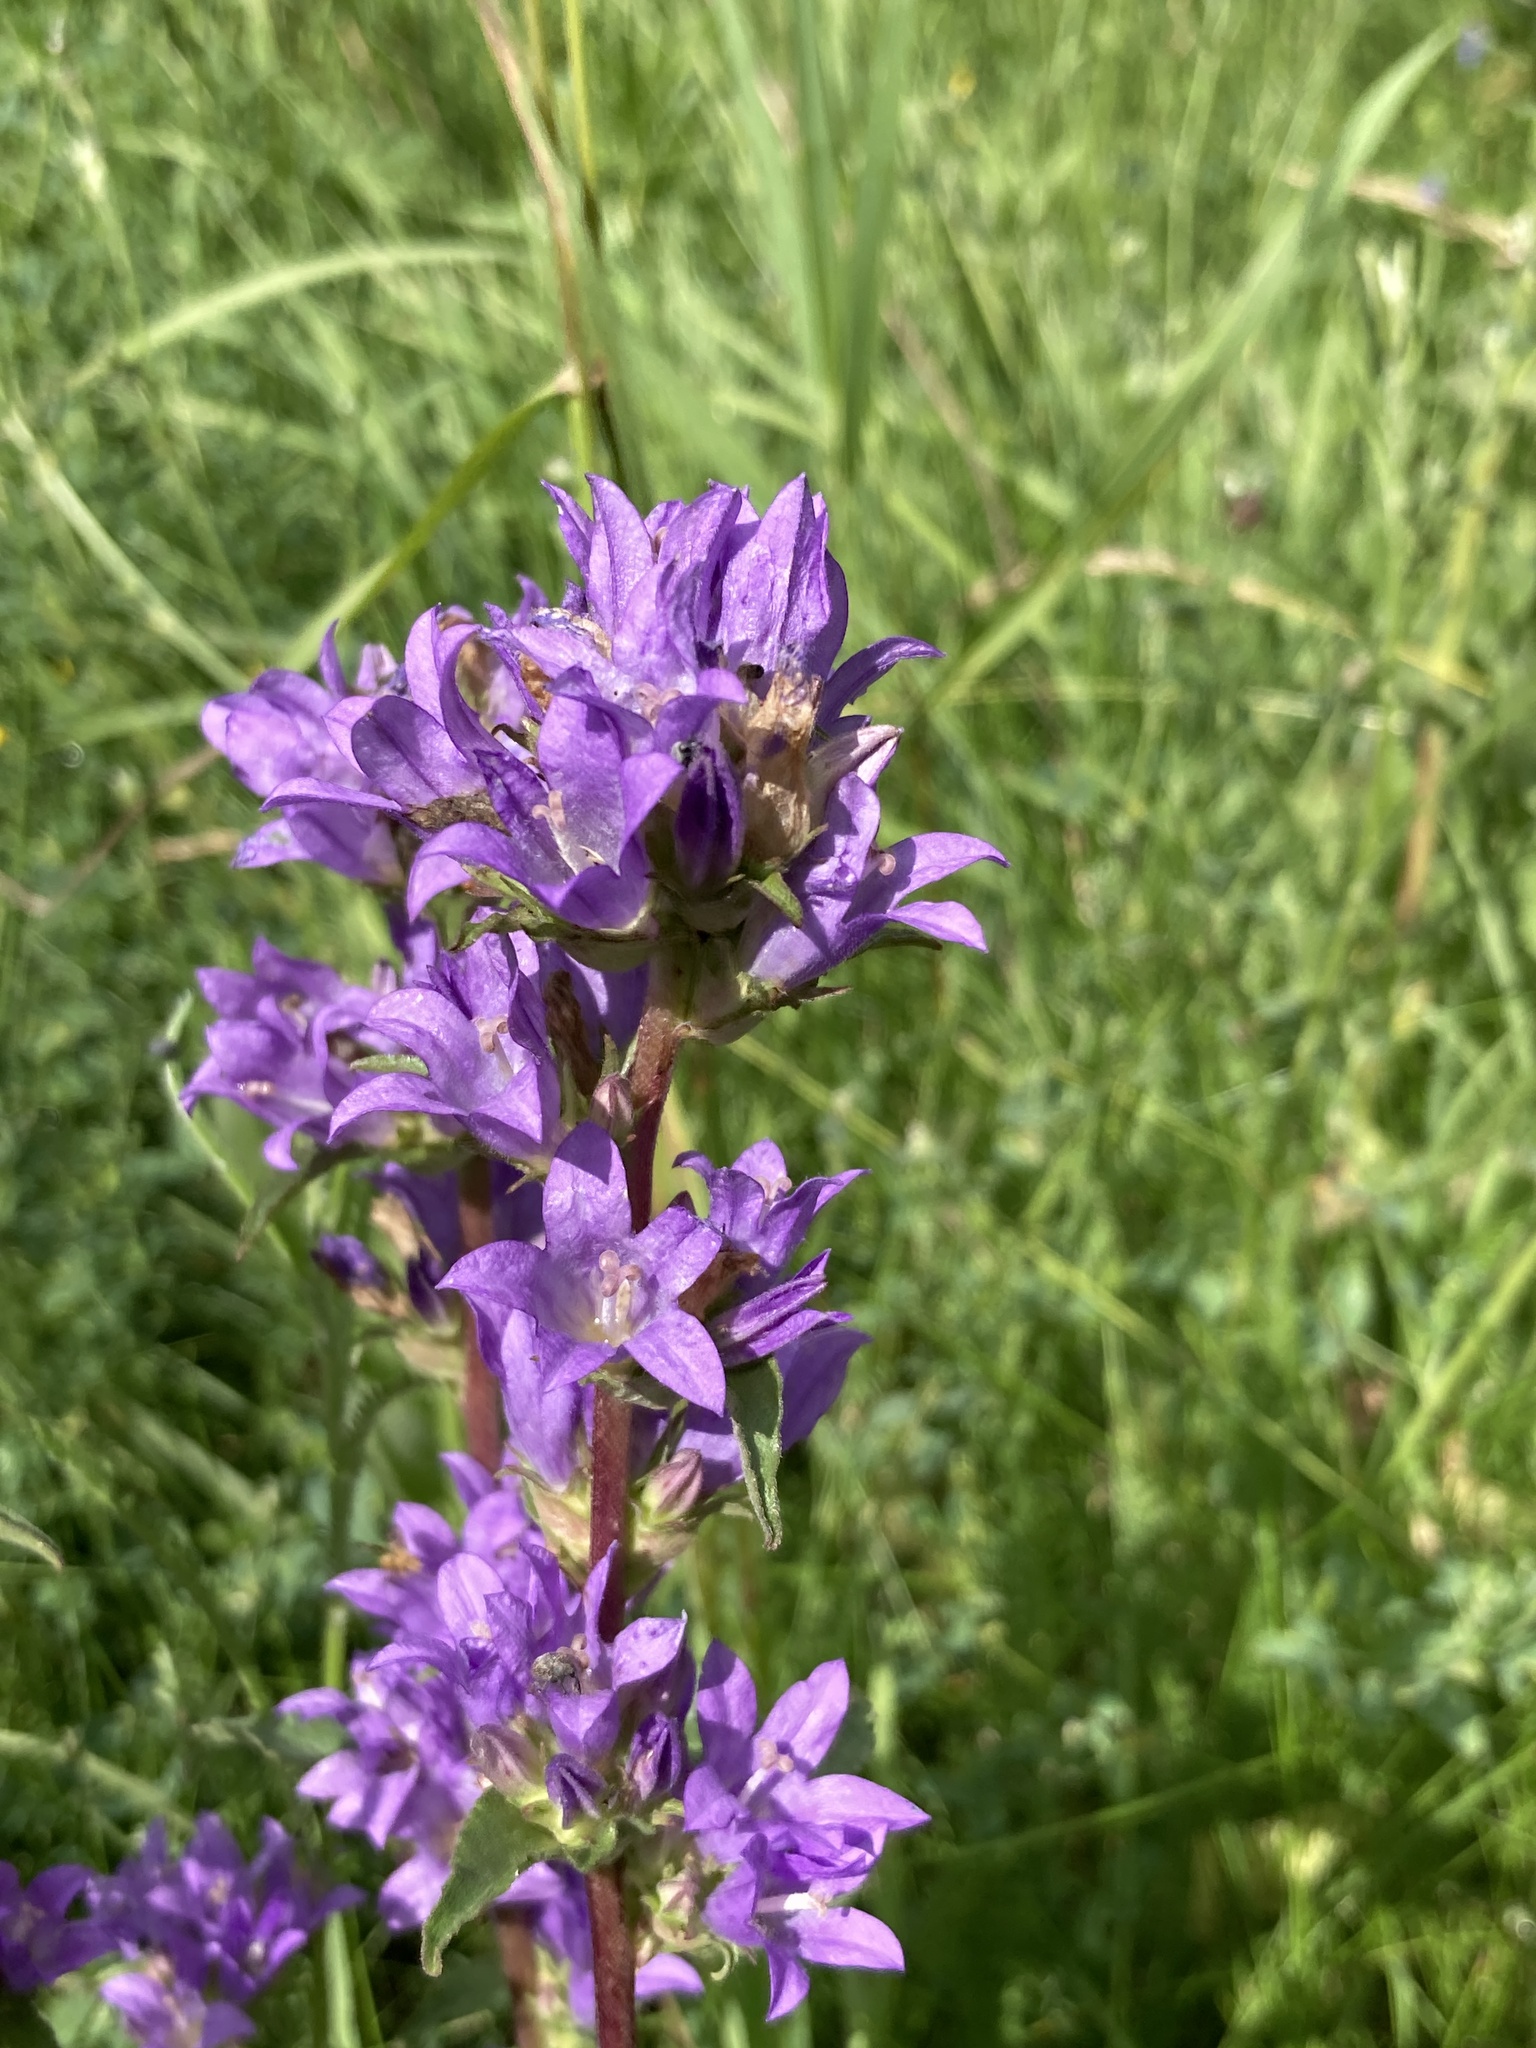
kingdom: Plantae
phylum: Tracheophyta
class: Magnoliopsida
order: Asterales
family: Campanulaceae
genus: Campanula
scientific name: Campanula glomerata
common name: Clustered bellflower
